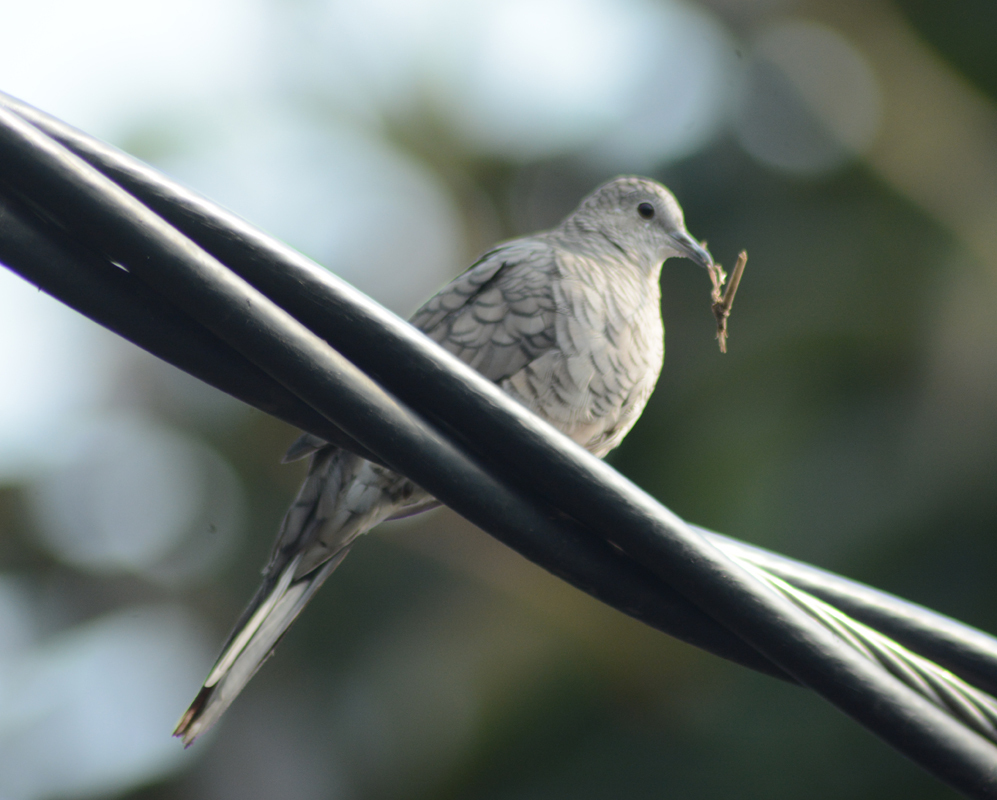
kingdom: Animalia
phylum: Chordata
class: Aves
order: Columbiformes
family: Columbidae
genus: Columbina
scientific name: Columbina inca
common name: Inca dove
